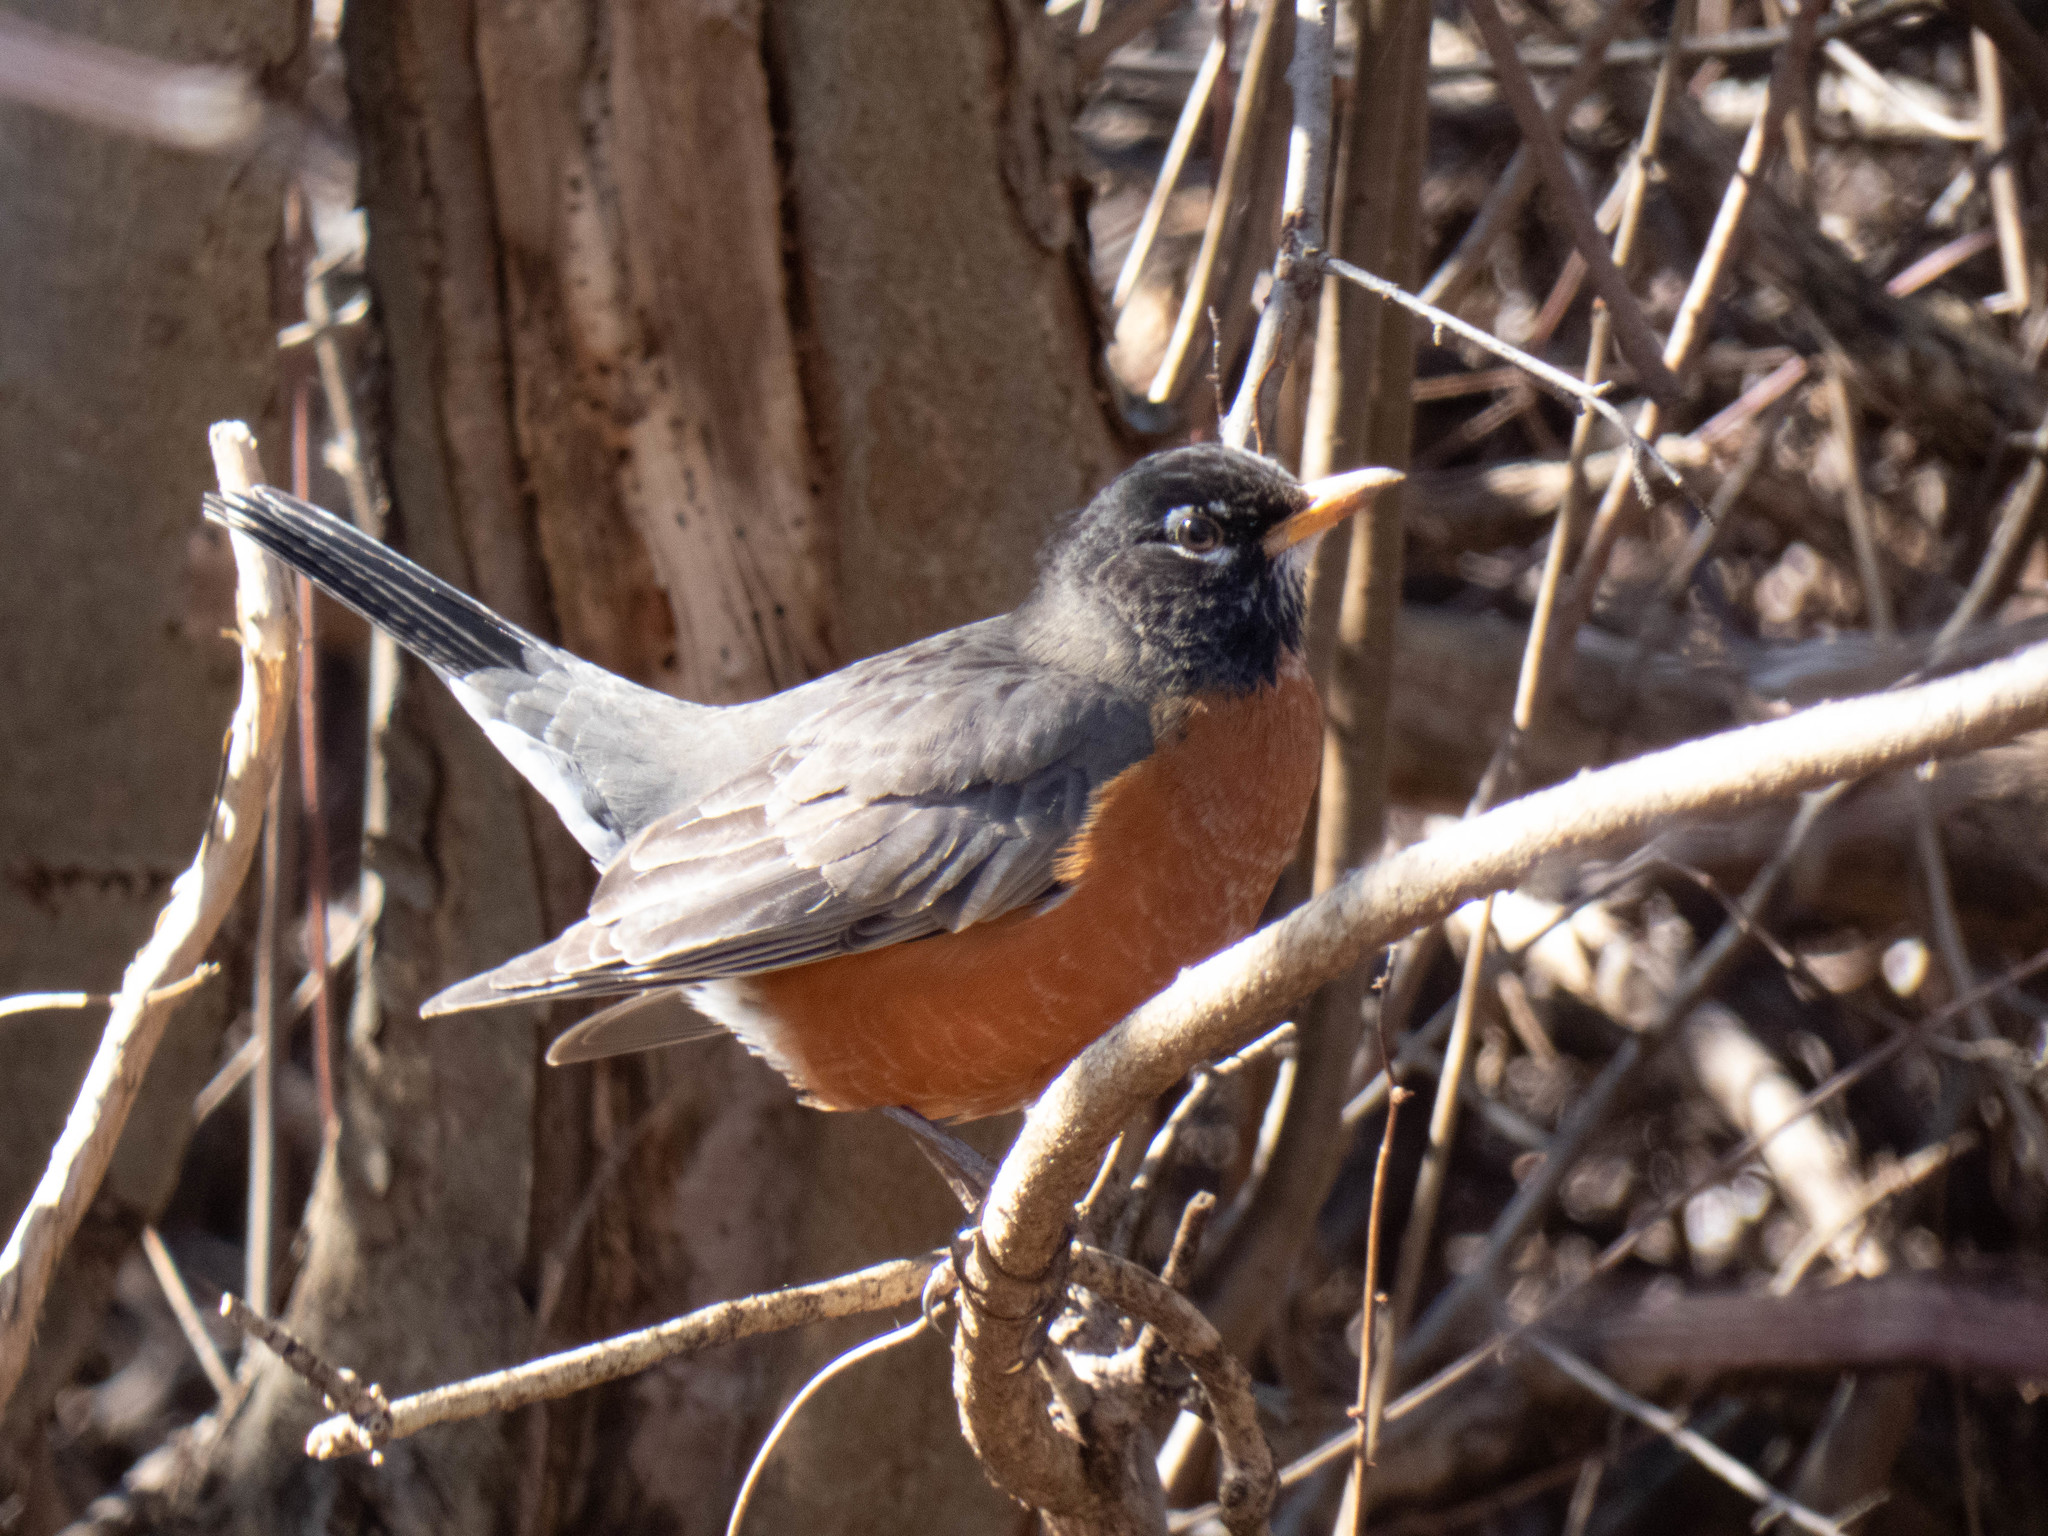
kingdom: Animalia
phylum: Chordata
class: Aves
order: Passeriformes
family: Turdidae
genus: Turdus
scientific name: Turdus migratorius
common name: American robin
